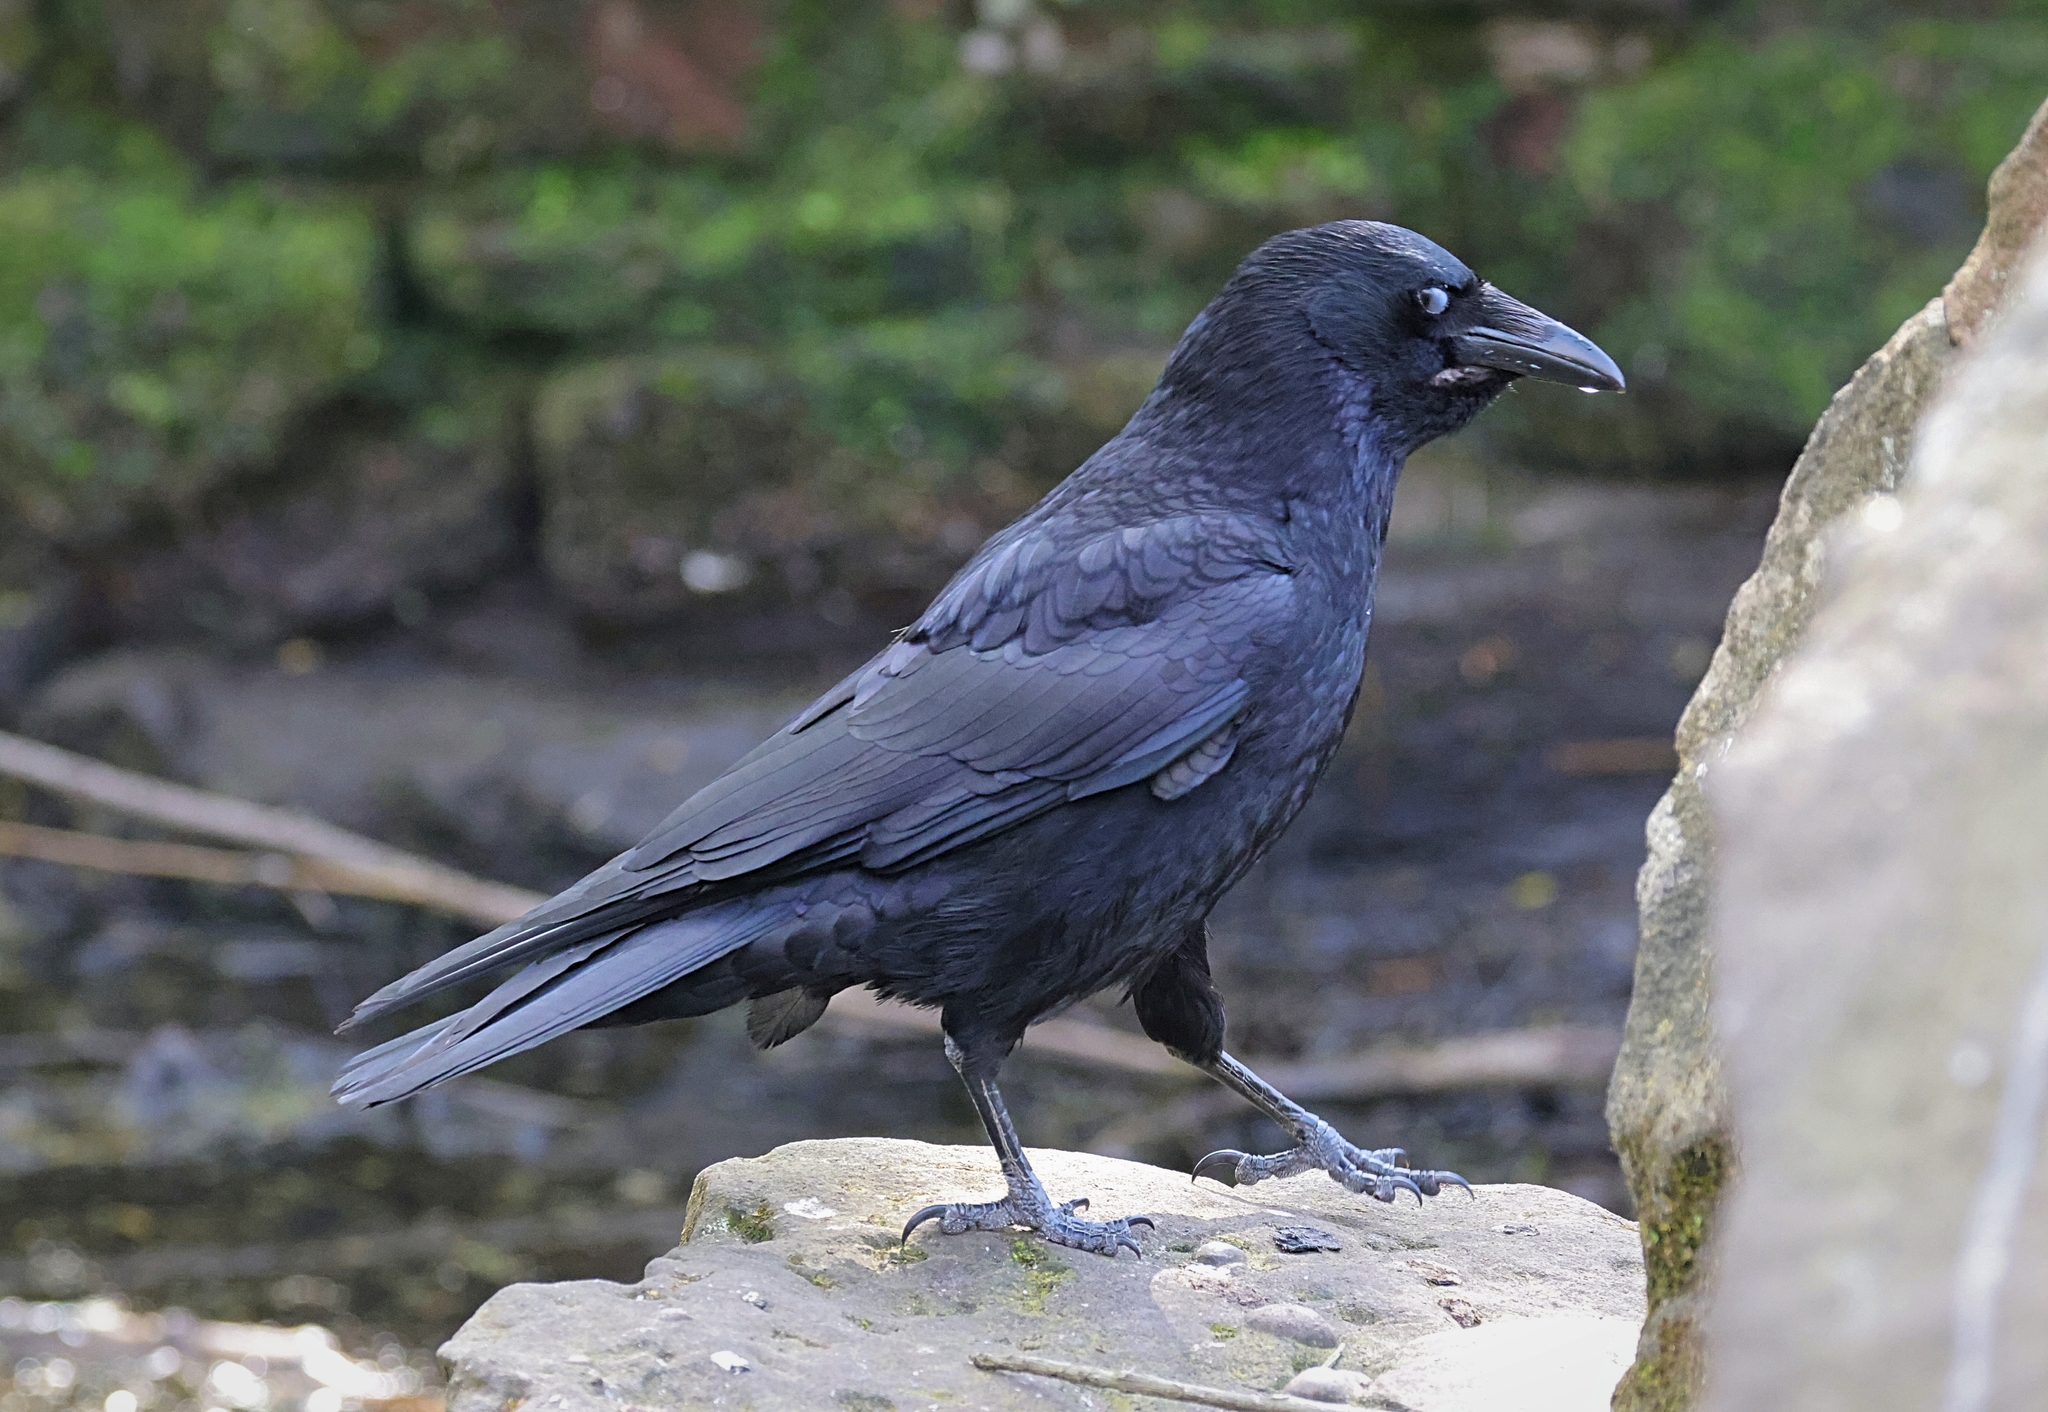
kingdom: Animalia
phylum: Chordata
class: Aves
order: Passeriformes
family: Corvidae
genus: Corvus
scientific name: Corvus corone
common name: Carrion crow
